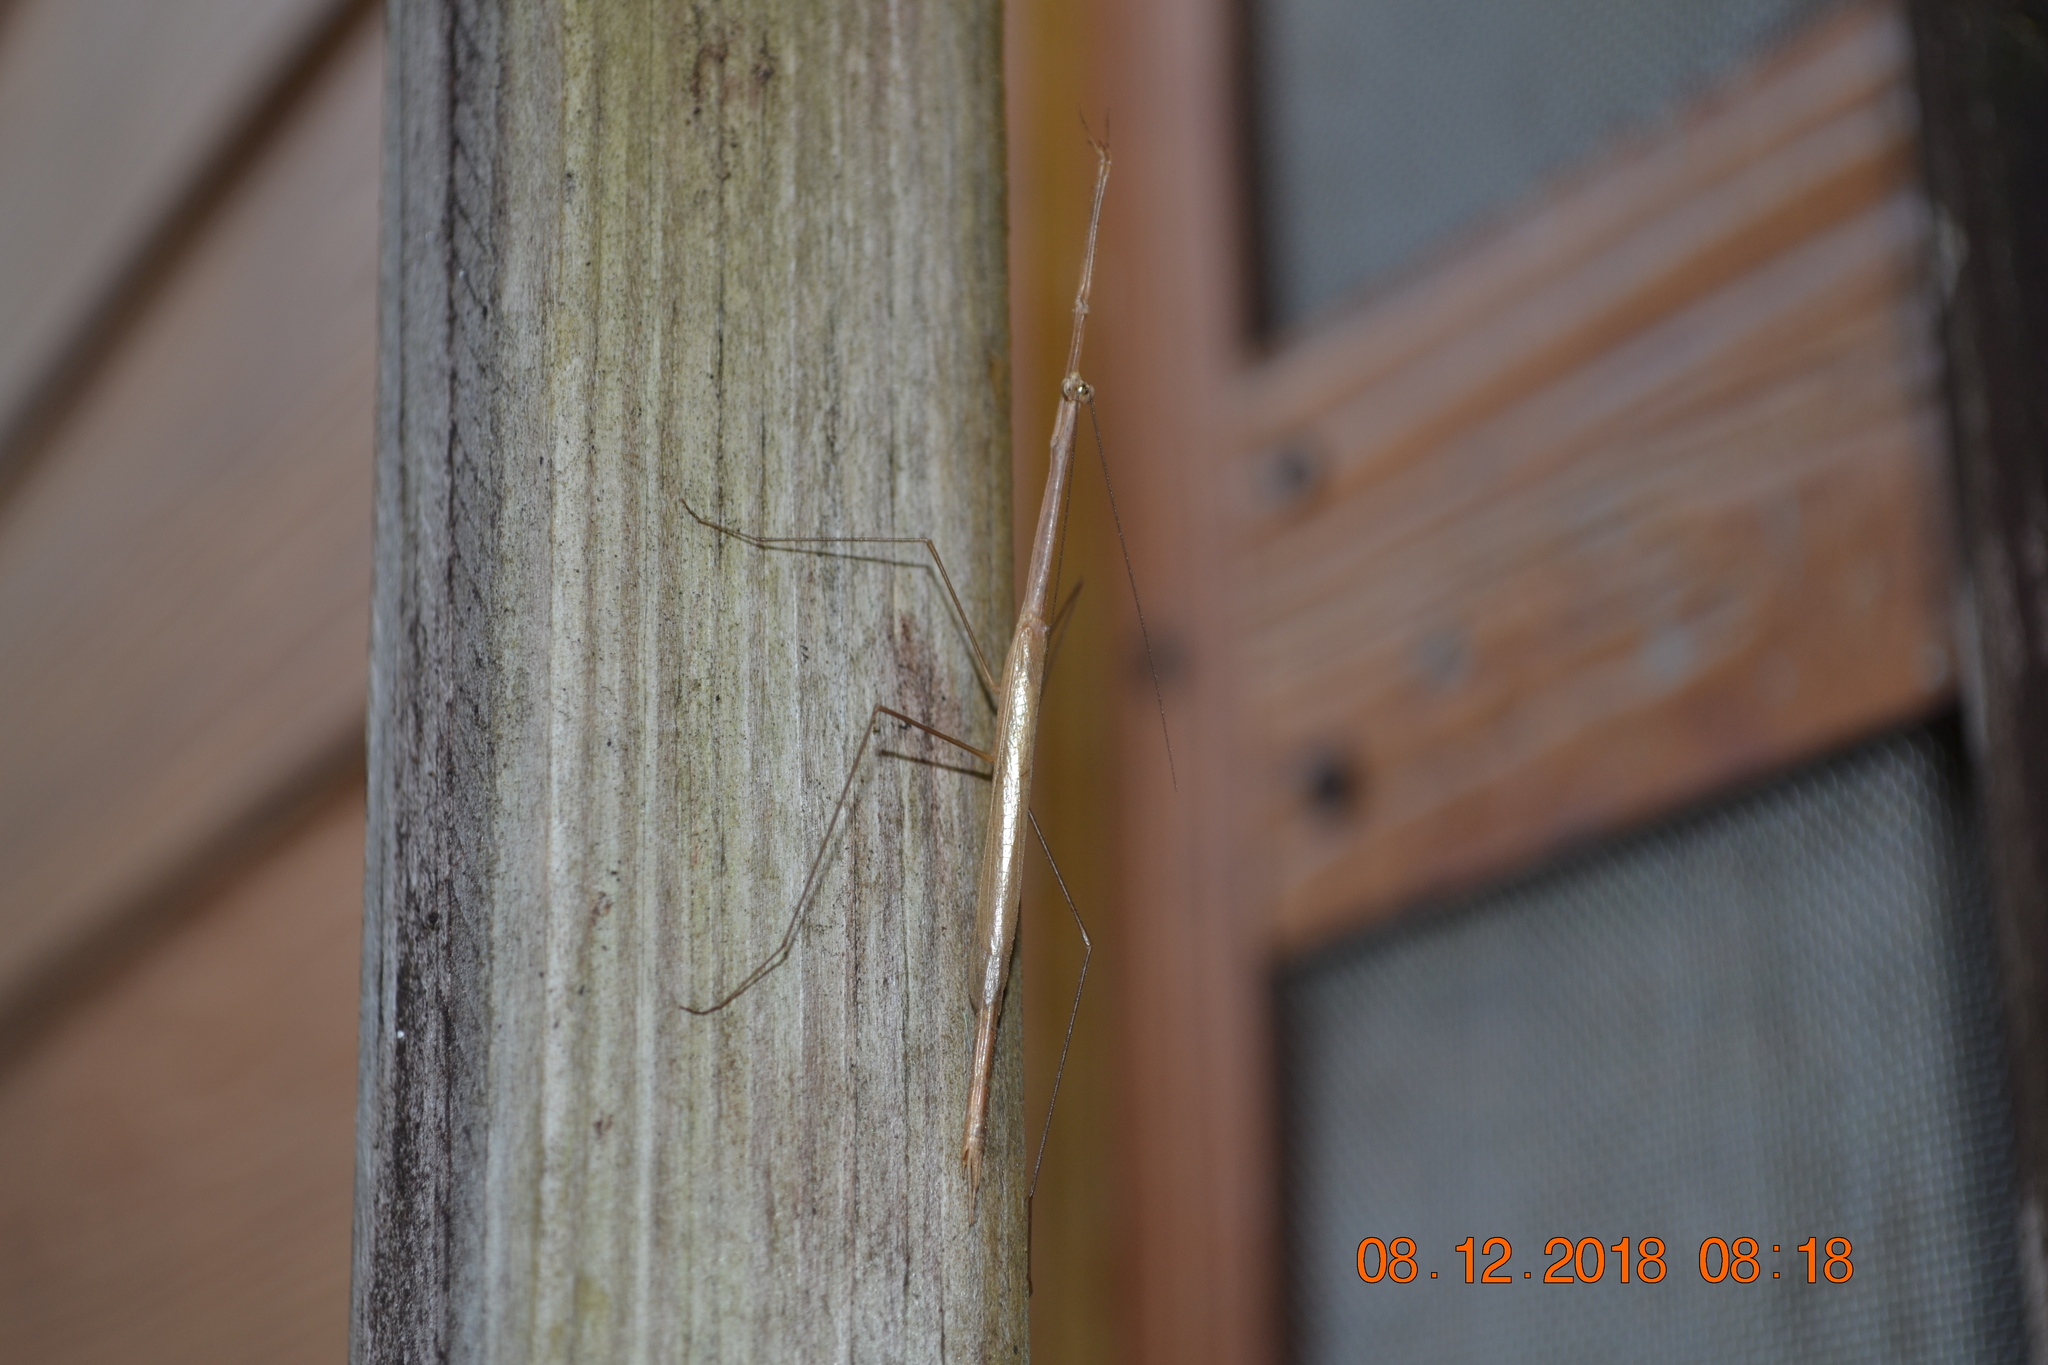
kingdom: Animalia
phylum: Arthropoda
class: Insecta
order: Mantodea
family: Thespidae
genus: Thesprotia
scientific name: Thesprotia graminis
